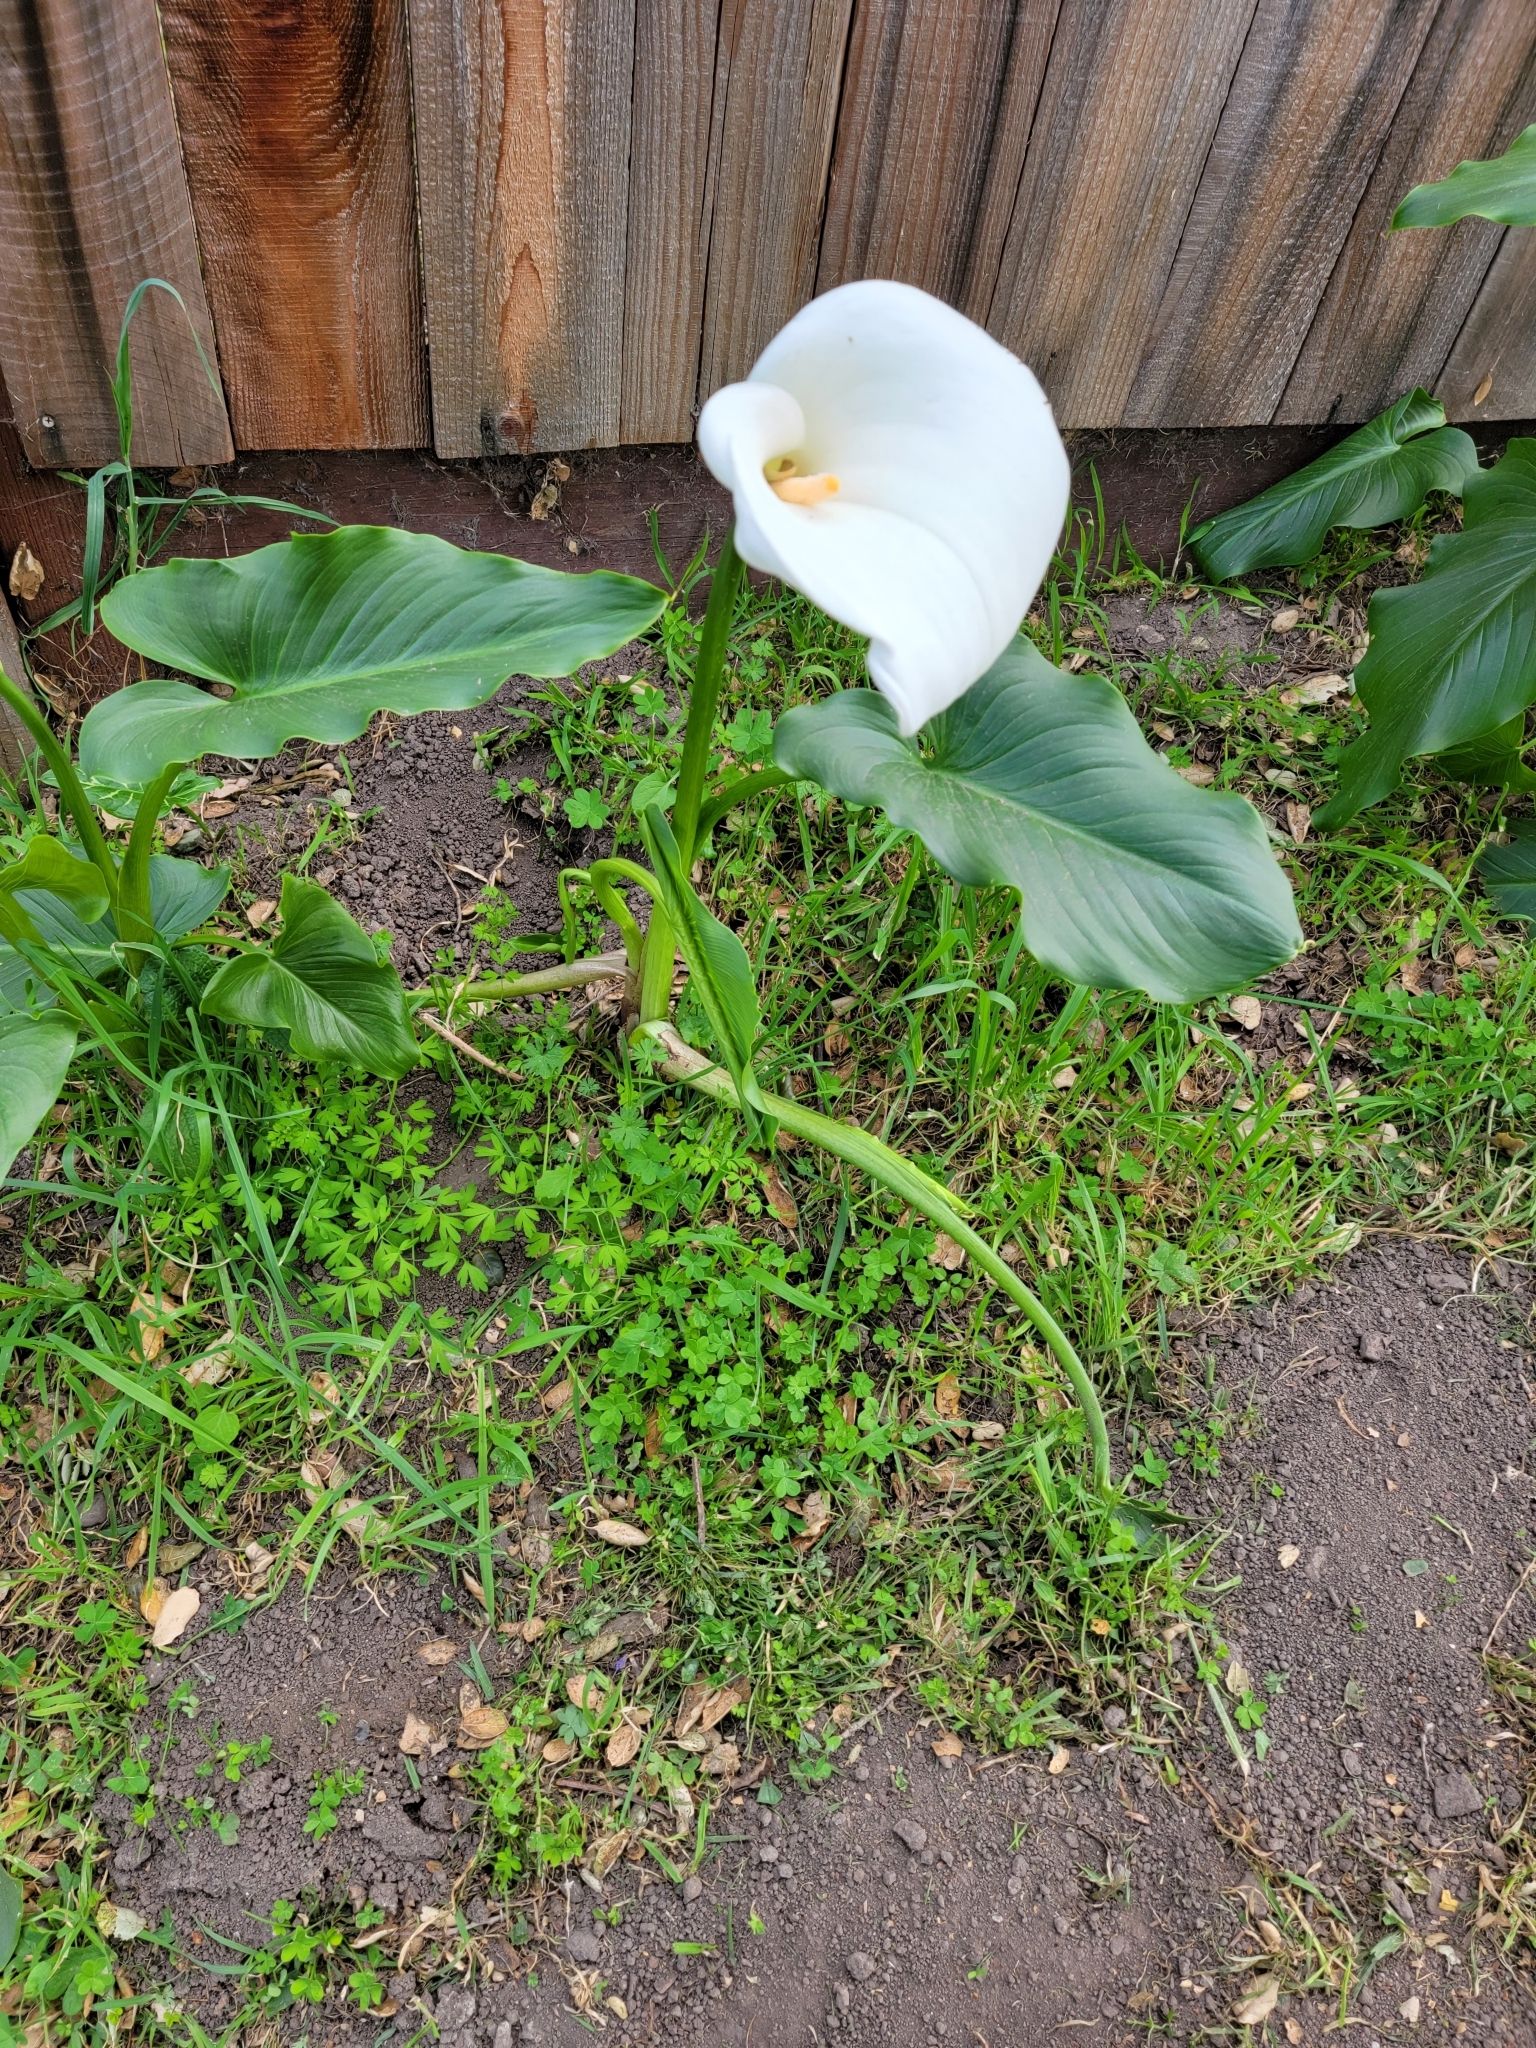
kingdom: Plantae
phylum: Tracheophyta
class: Liliopsida
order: Alismatales
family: Araceae
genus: Zantedeschia
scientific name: Zantedeschia aethiopica
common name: Altar-lily
